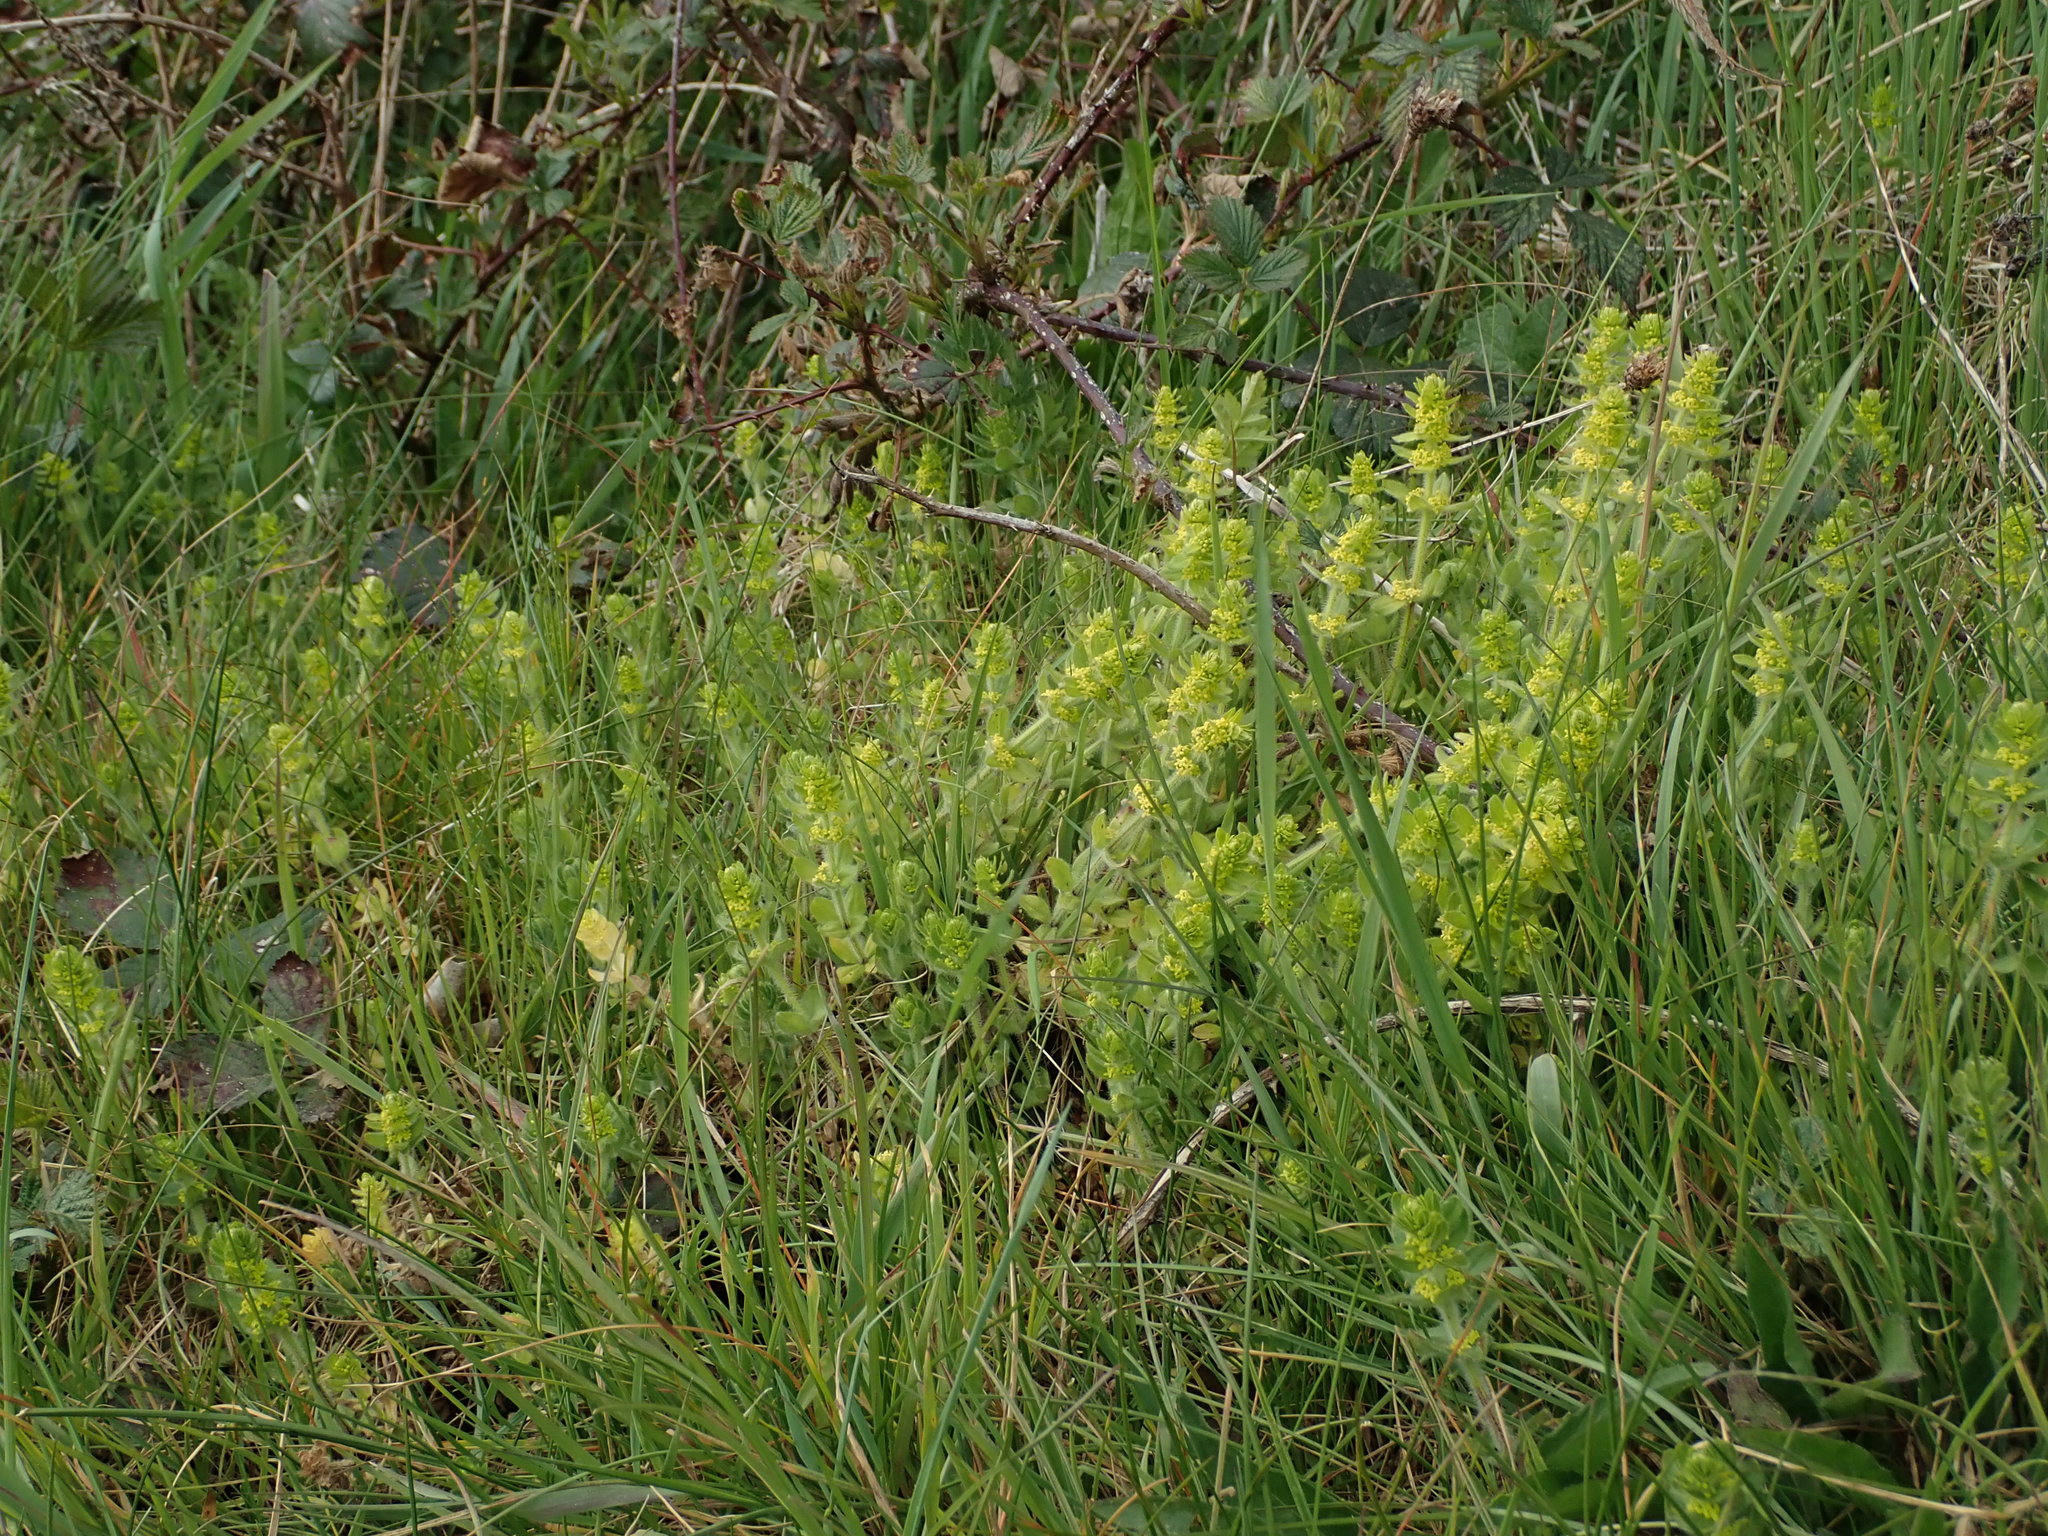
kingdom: Plantae
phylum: Tracheophyta
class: Magnoliopsida
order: Gentianales
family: Rubiaceae
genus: Cruciata
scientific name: Cruciata laevipes
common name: Crosswort
